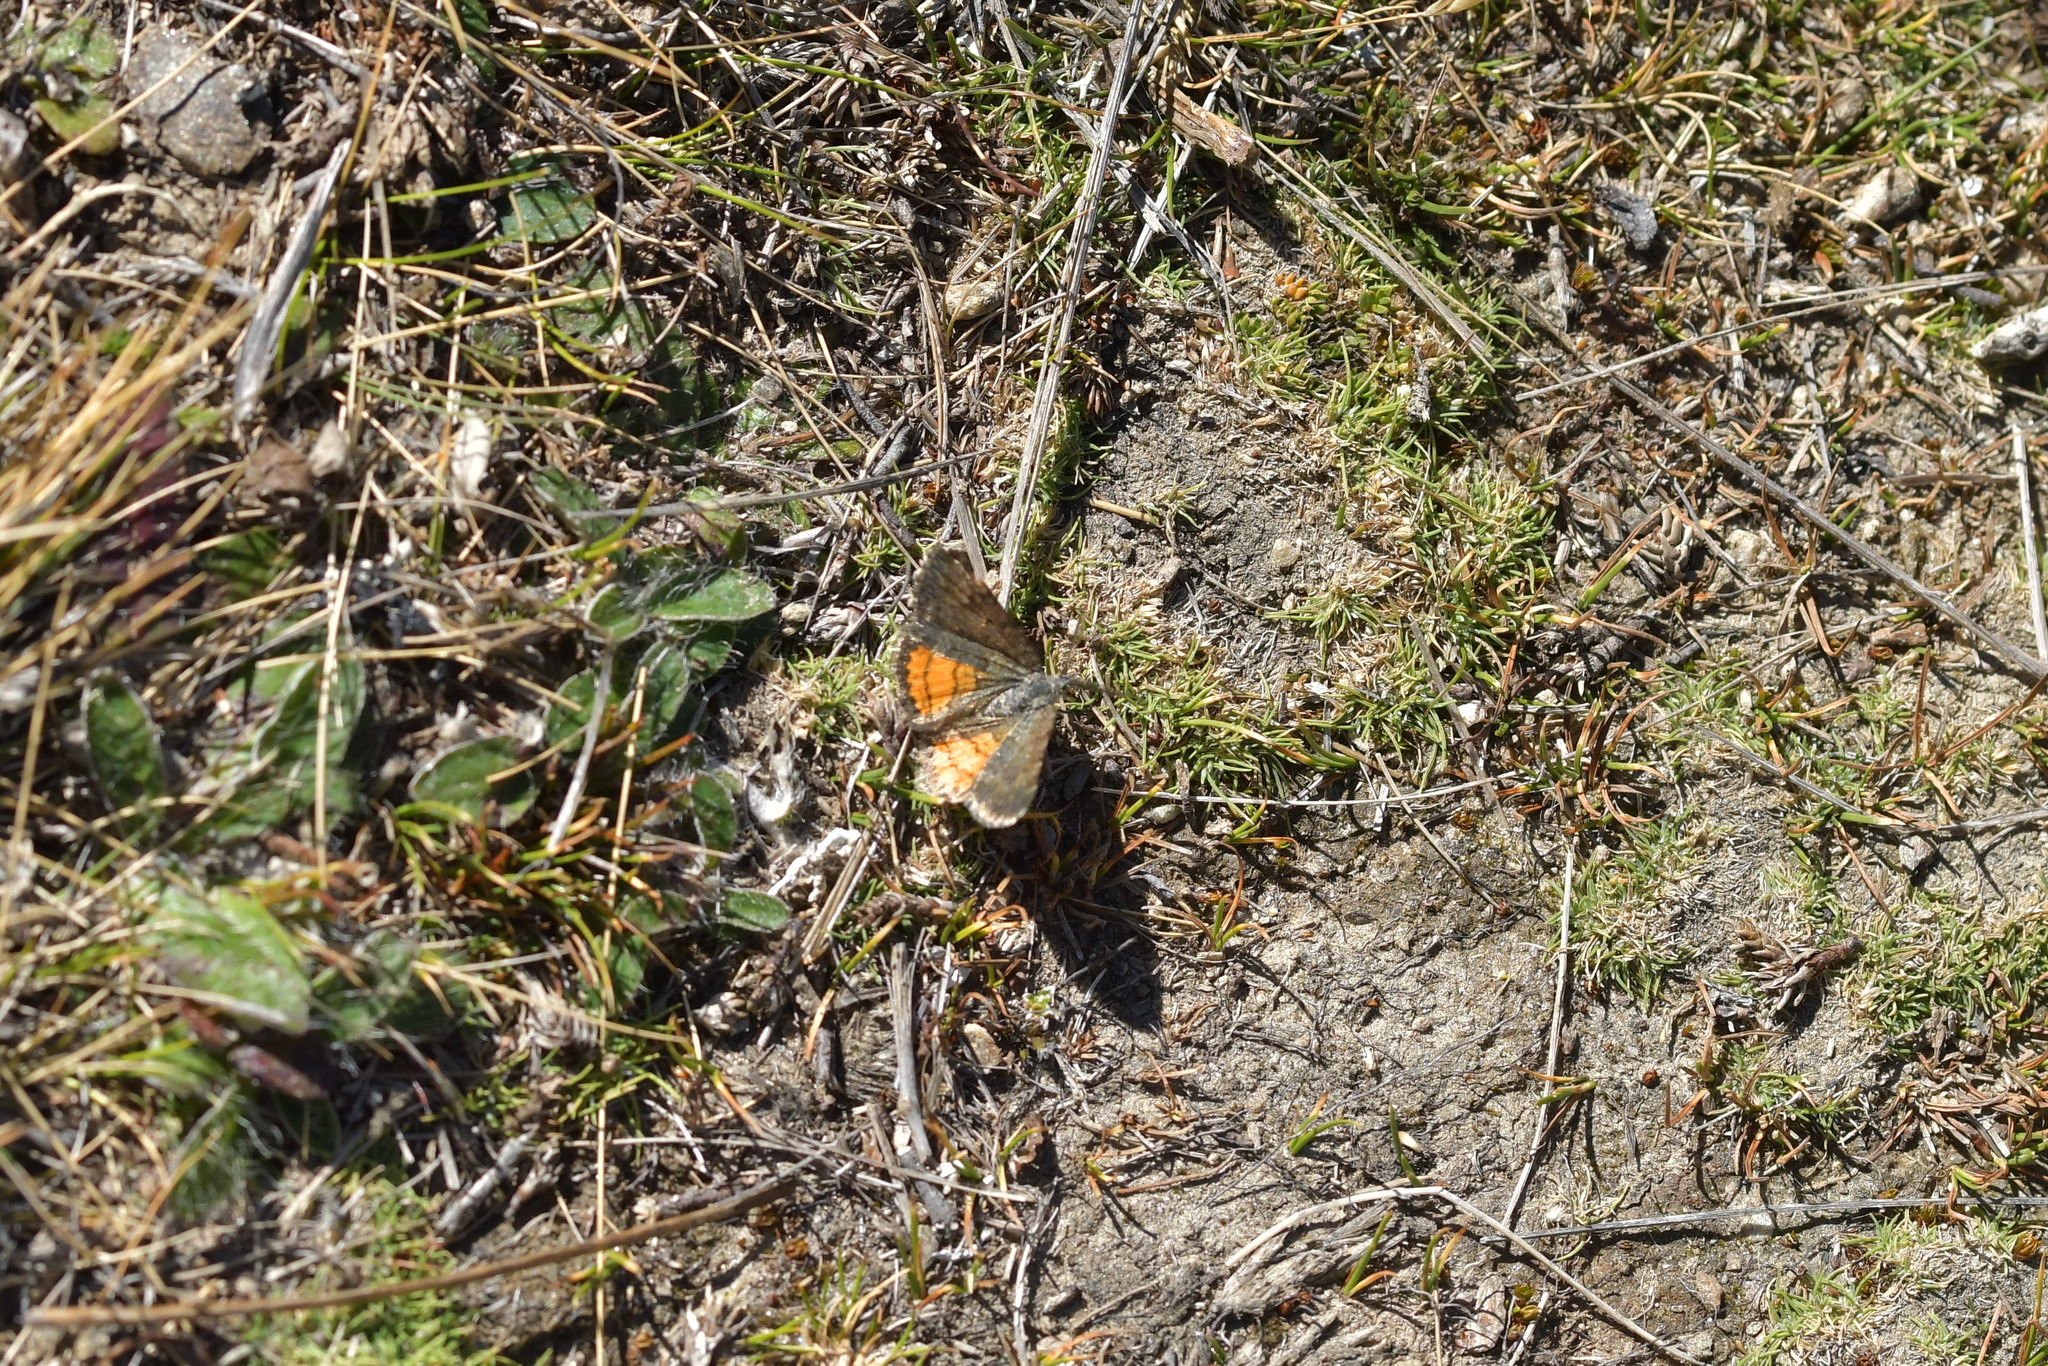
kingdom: Animalia
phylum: Arthropoda
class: Insecta
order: Lepidoptera
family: Geometridae
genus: Paranotoreas
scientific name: Paranotoreas brephosata
